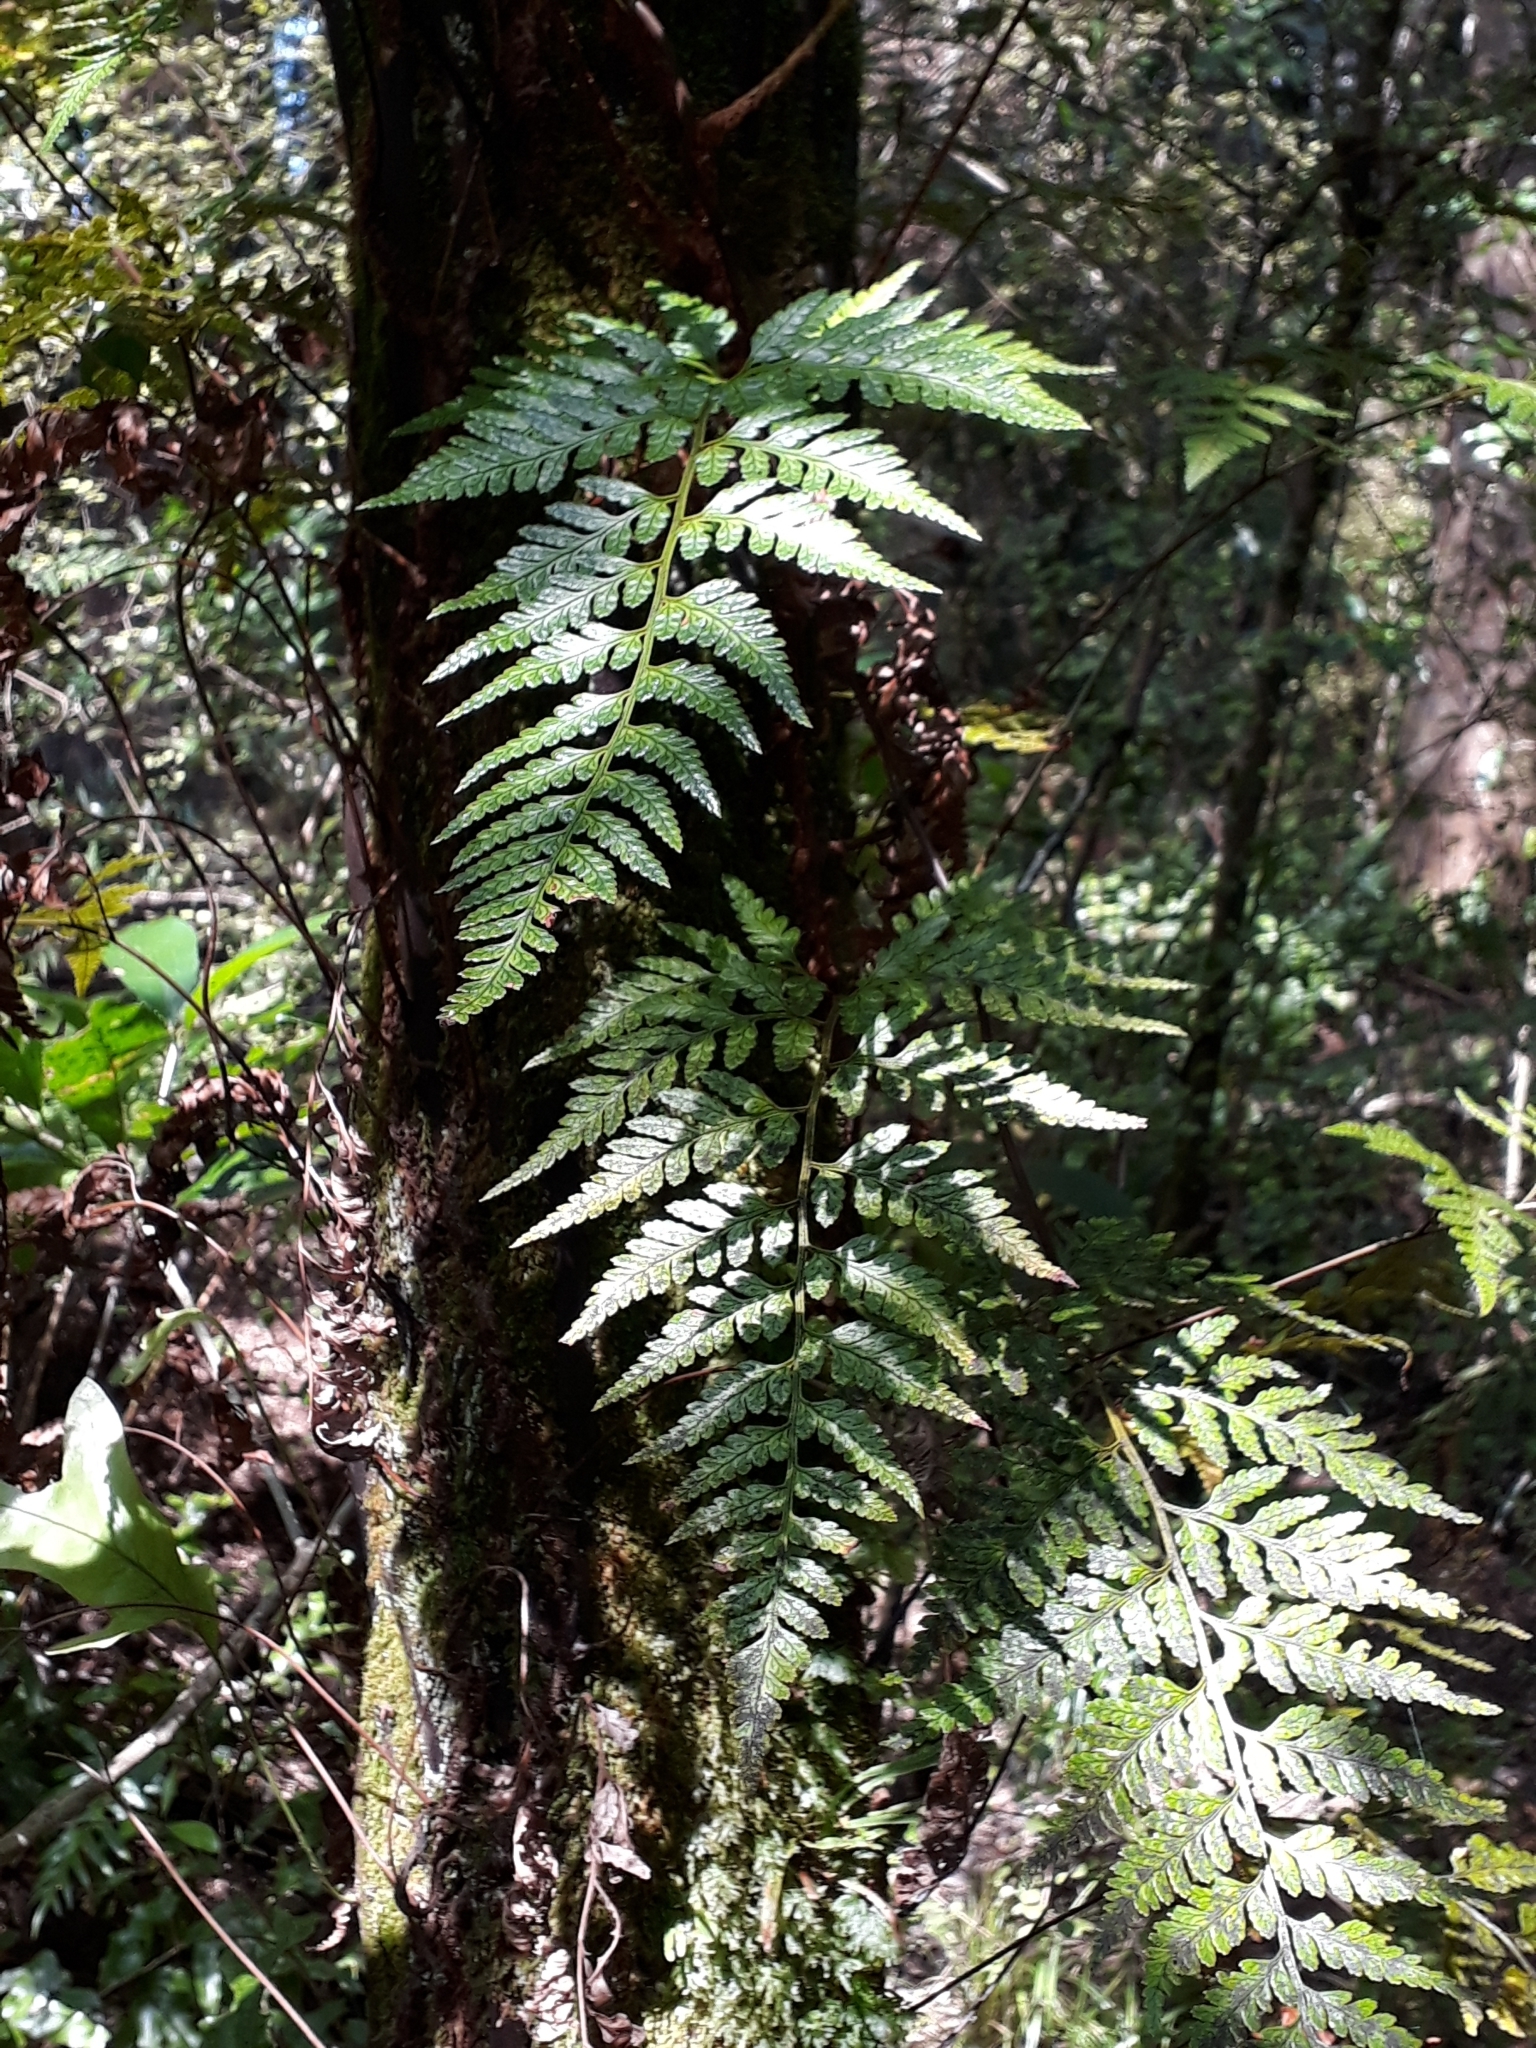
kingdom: Plantae
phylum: Tracheophyta
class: Polypodiopsida
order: Polypodiales
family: Dryopteridaceae
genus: Rumohra
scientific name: Rumohra adiantiformis
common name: Leather fern
